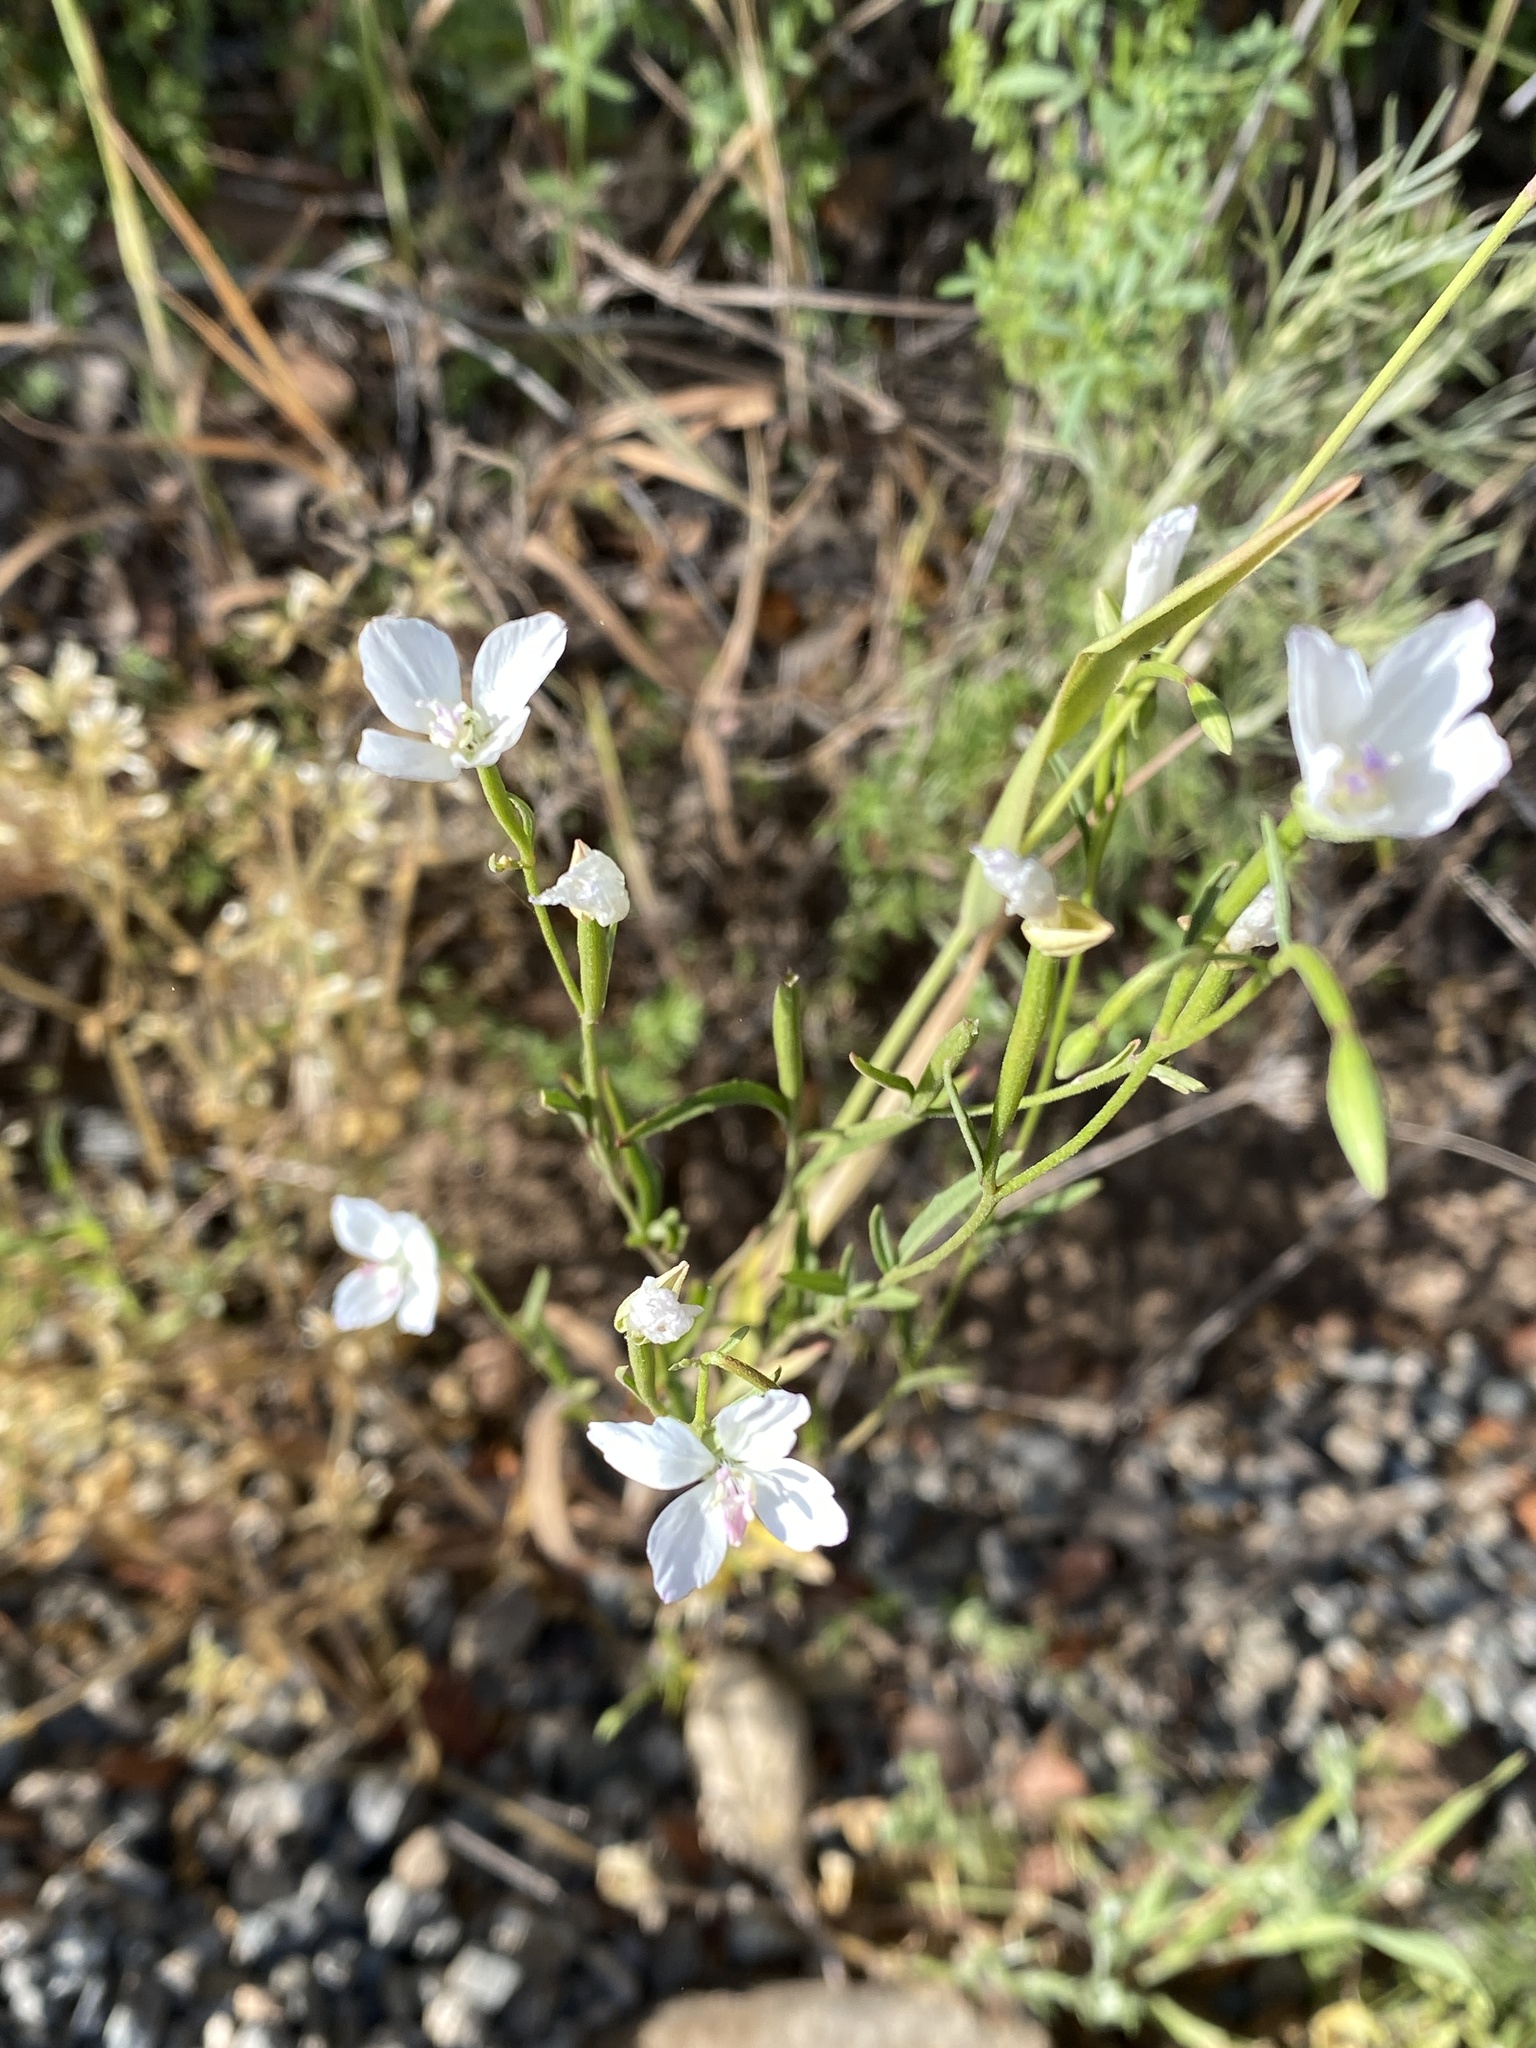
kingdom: Plantae
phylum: Tracheophyta
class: Magnoliopsida
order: Myrtales
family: Onagraceae
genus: Clarkia
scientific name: Clarkia epilobioides
